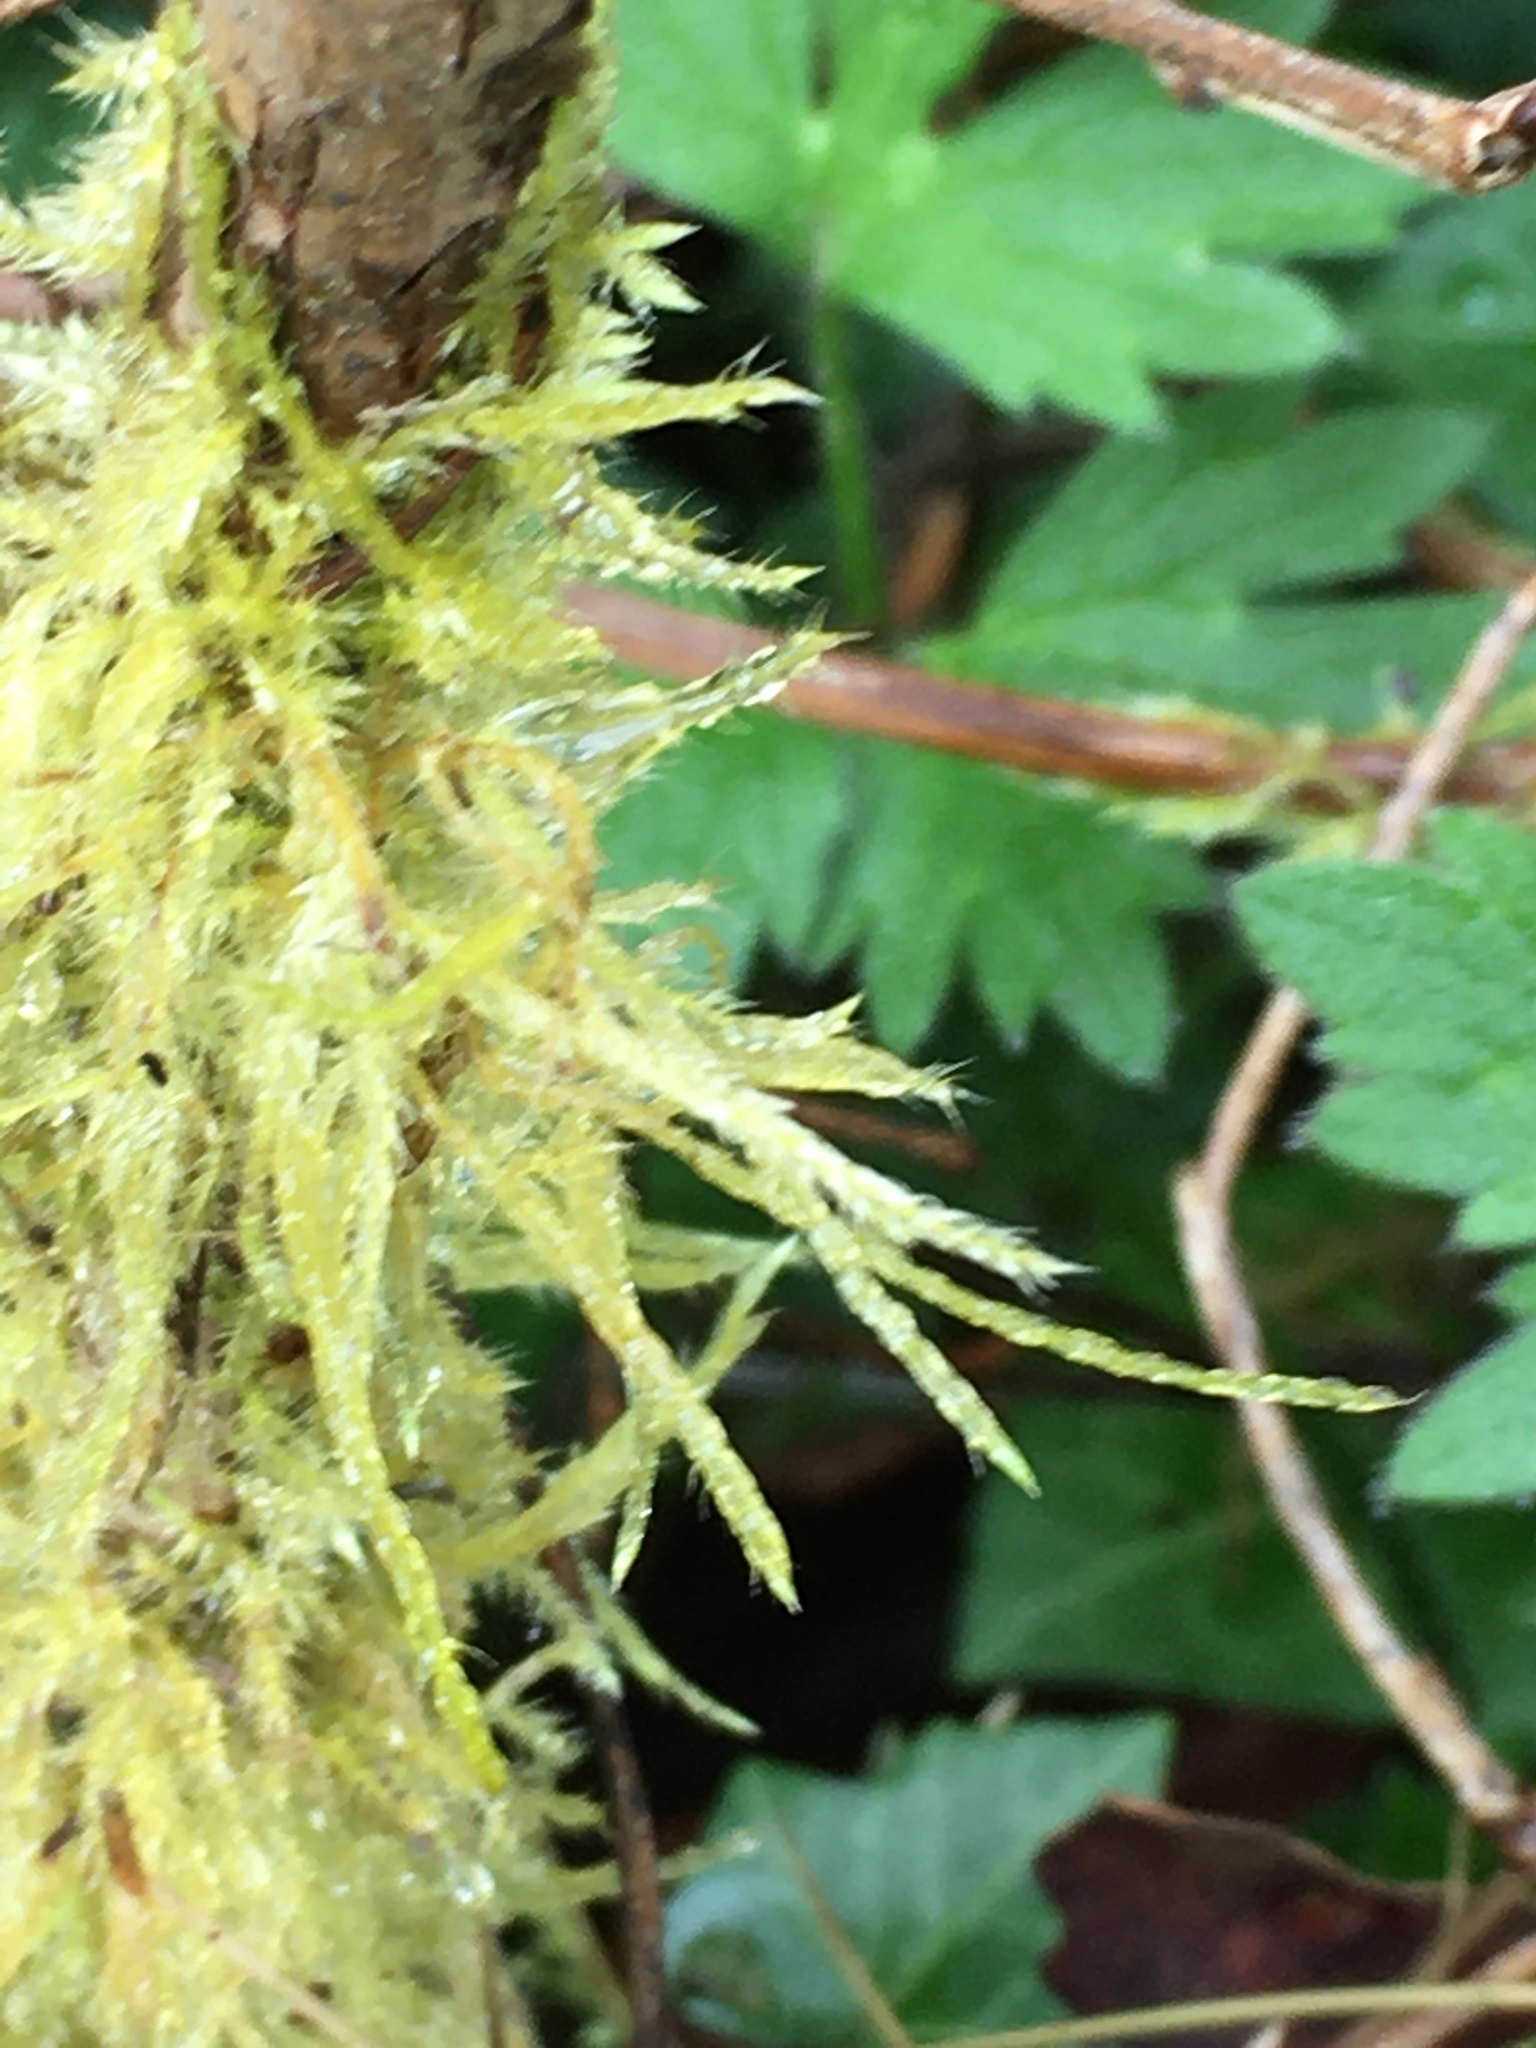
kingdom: Plantae
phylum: Bryophyta
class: Bryopsida
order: Hypnales
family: Lembophyllaceae
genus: Pseudisothecium
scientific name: Pseudisothecium stoloniferum
